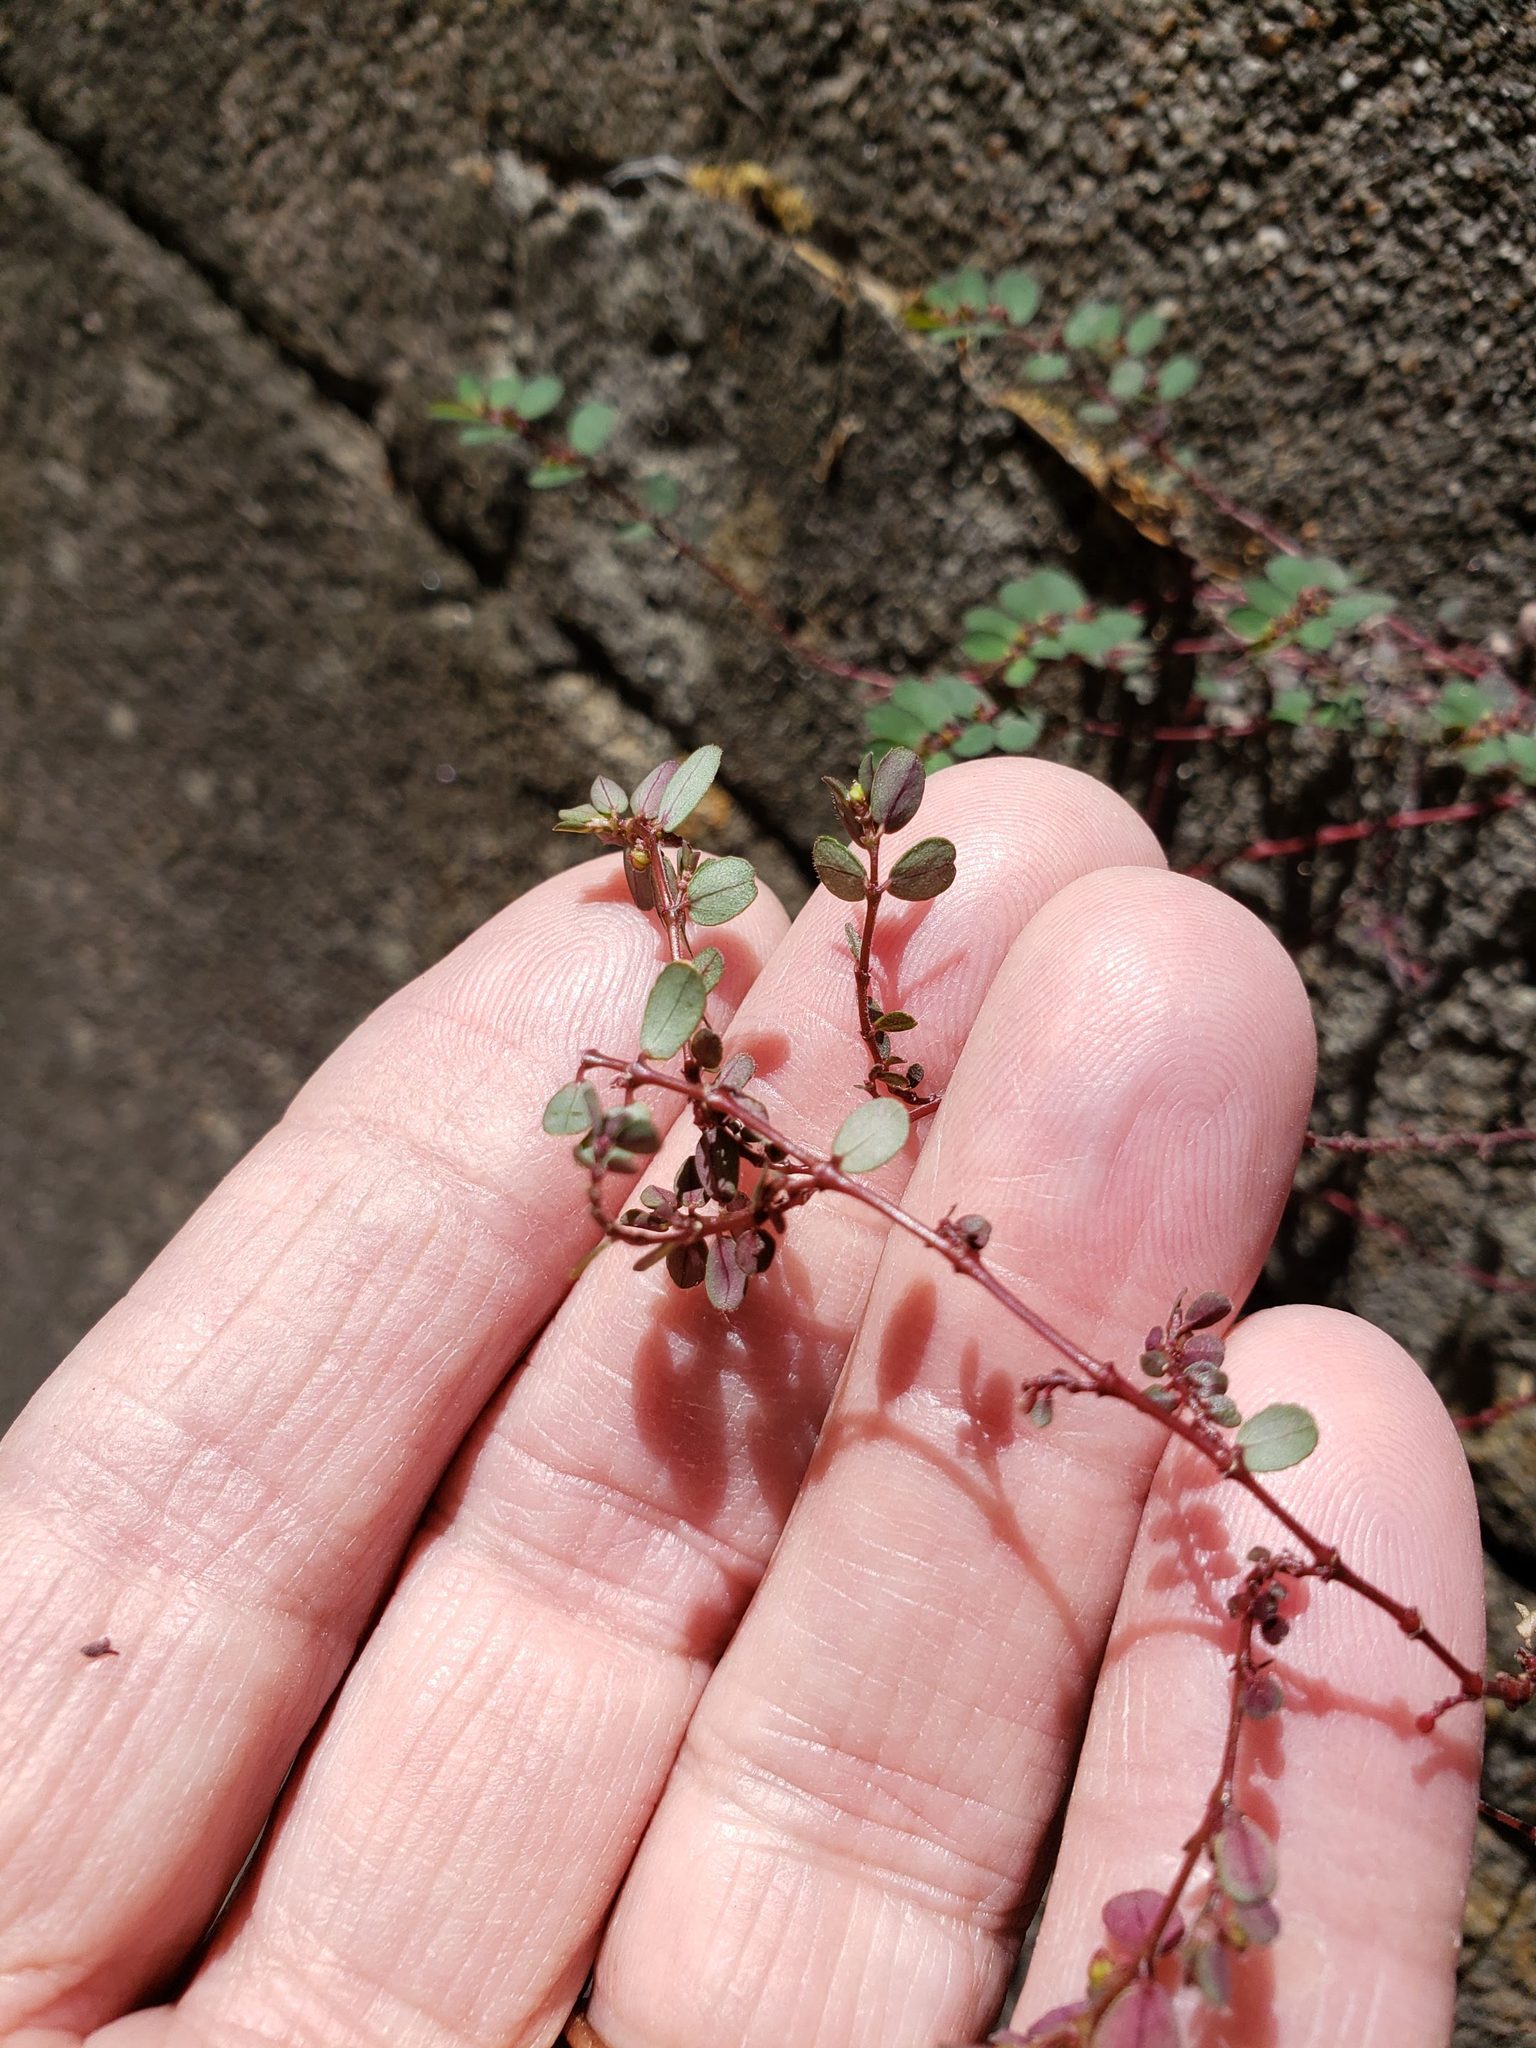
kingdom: Plantae
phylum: Tracheophyta
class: Magnoliopsida
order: Malpighiales
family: Euphorbiaceae
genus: Euphorbia
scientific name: Euphorbia prostrata
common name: Prostrate sandmat
